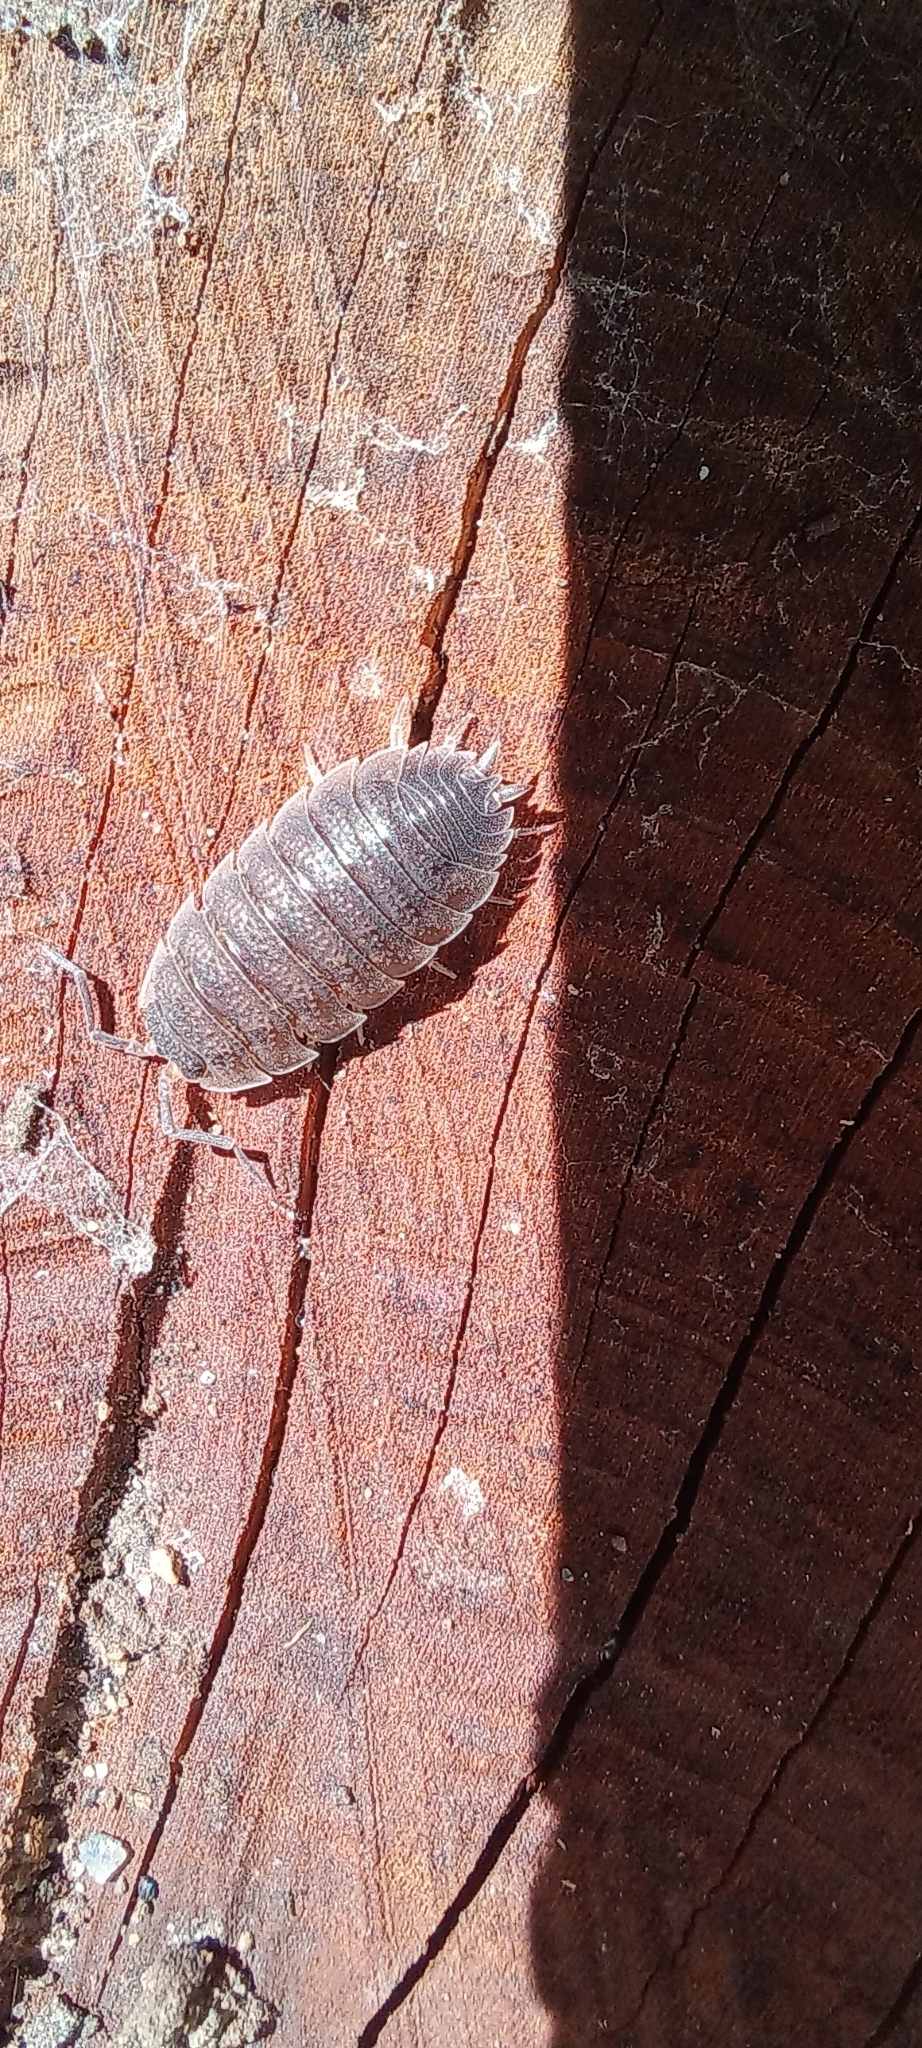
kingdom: Animalia
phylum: Arthropoda
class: Malacostraca
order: Isopoda
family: Porcellionidae
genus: Porcellio
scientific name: Porcellio scaber
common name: Common rough woodlouse
